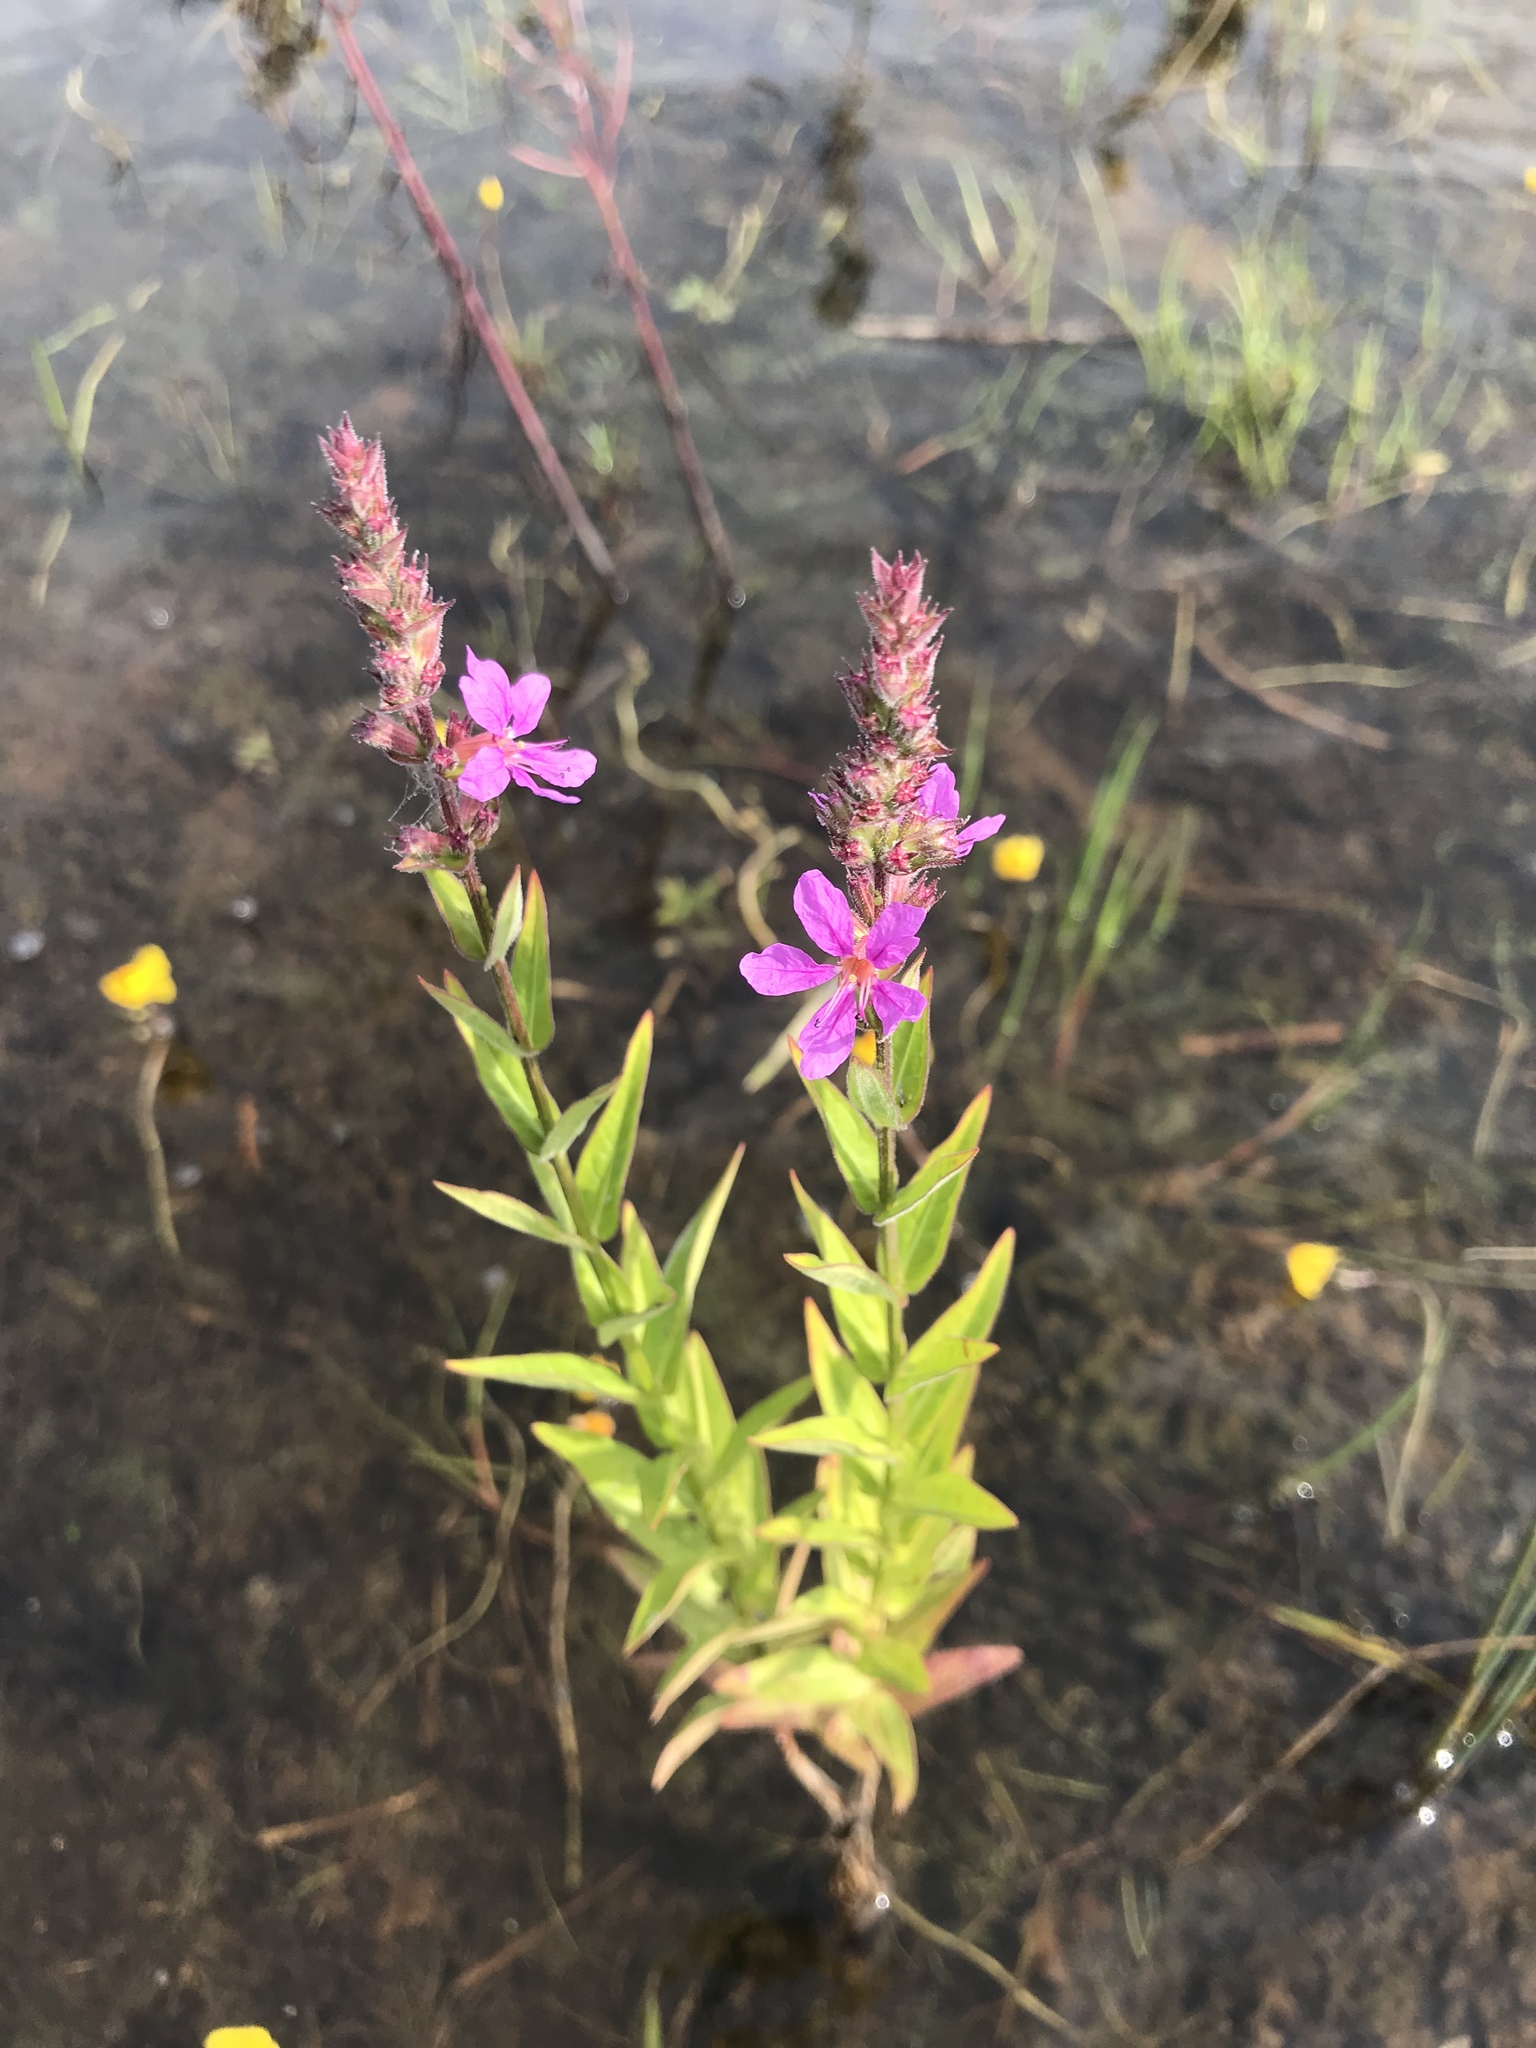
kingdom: Plantae
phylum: Tracheophyta
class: Magnoliopsida
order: Myrtales
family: Lythraceae
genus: Lythrum
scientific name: Lythrum salicaria
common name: Purple loosestrife
